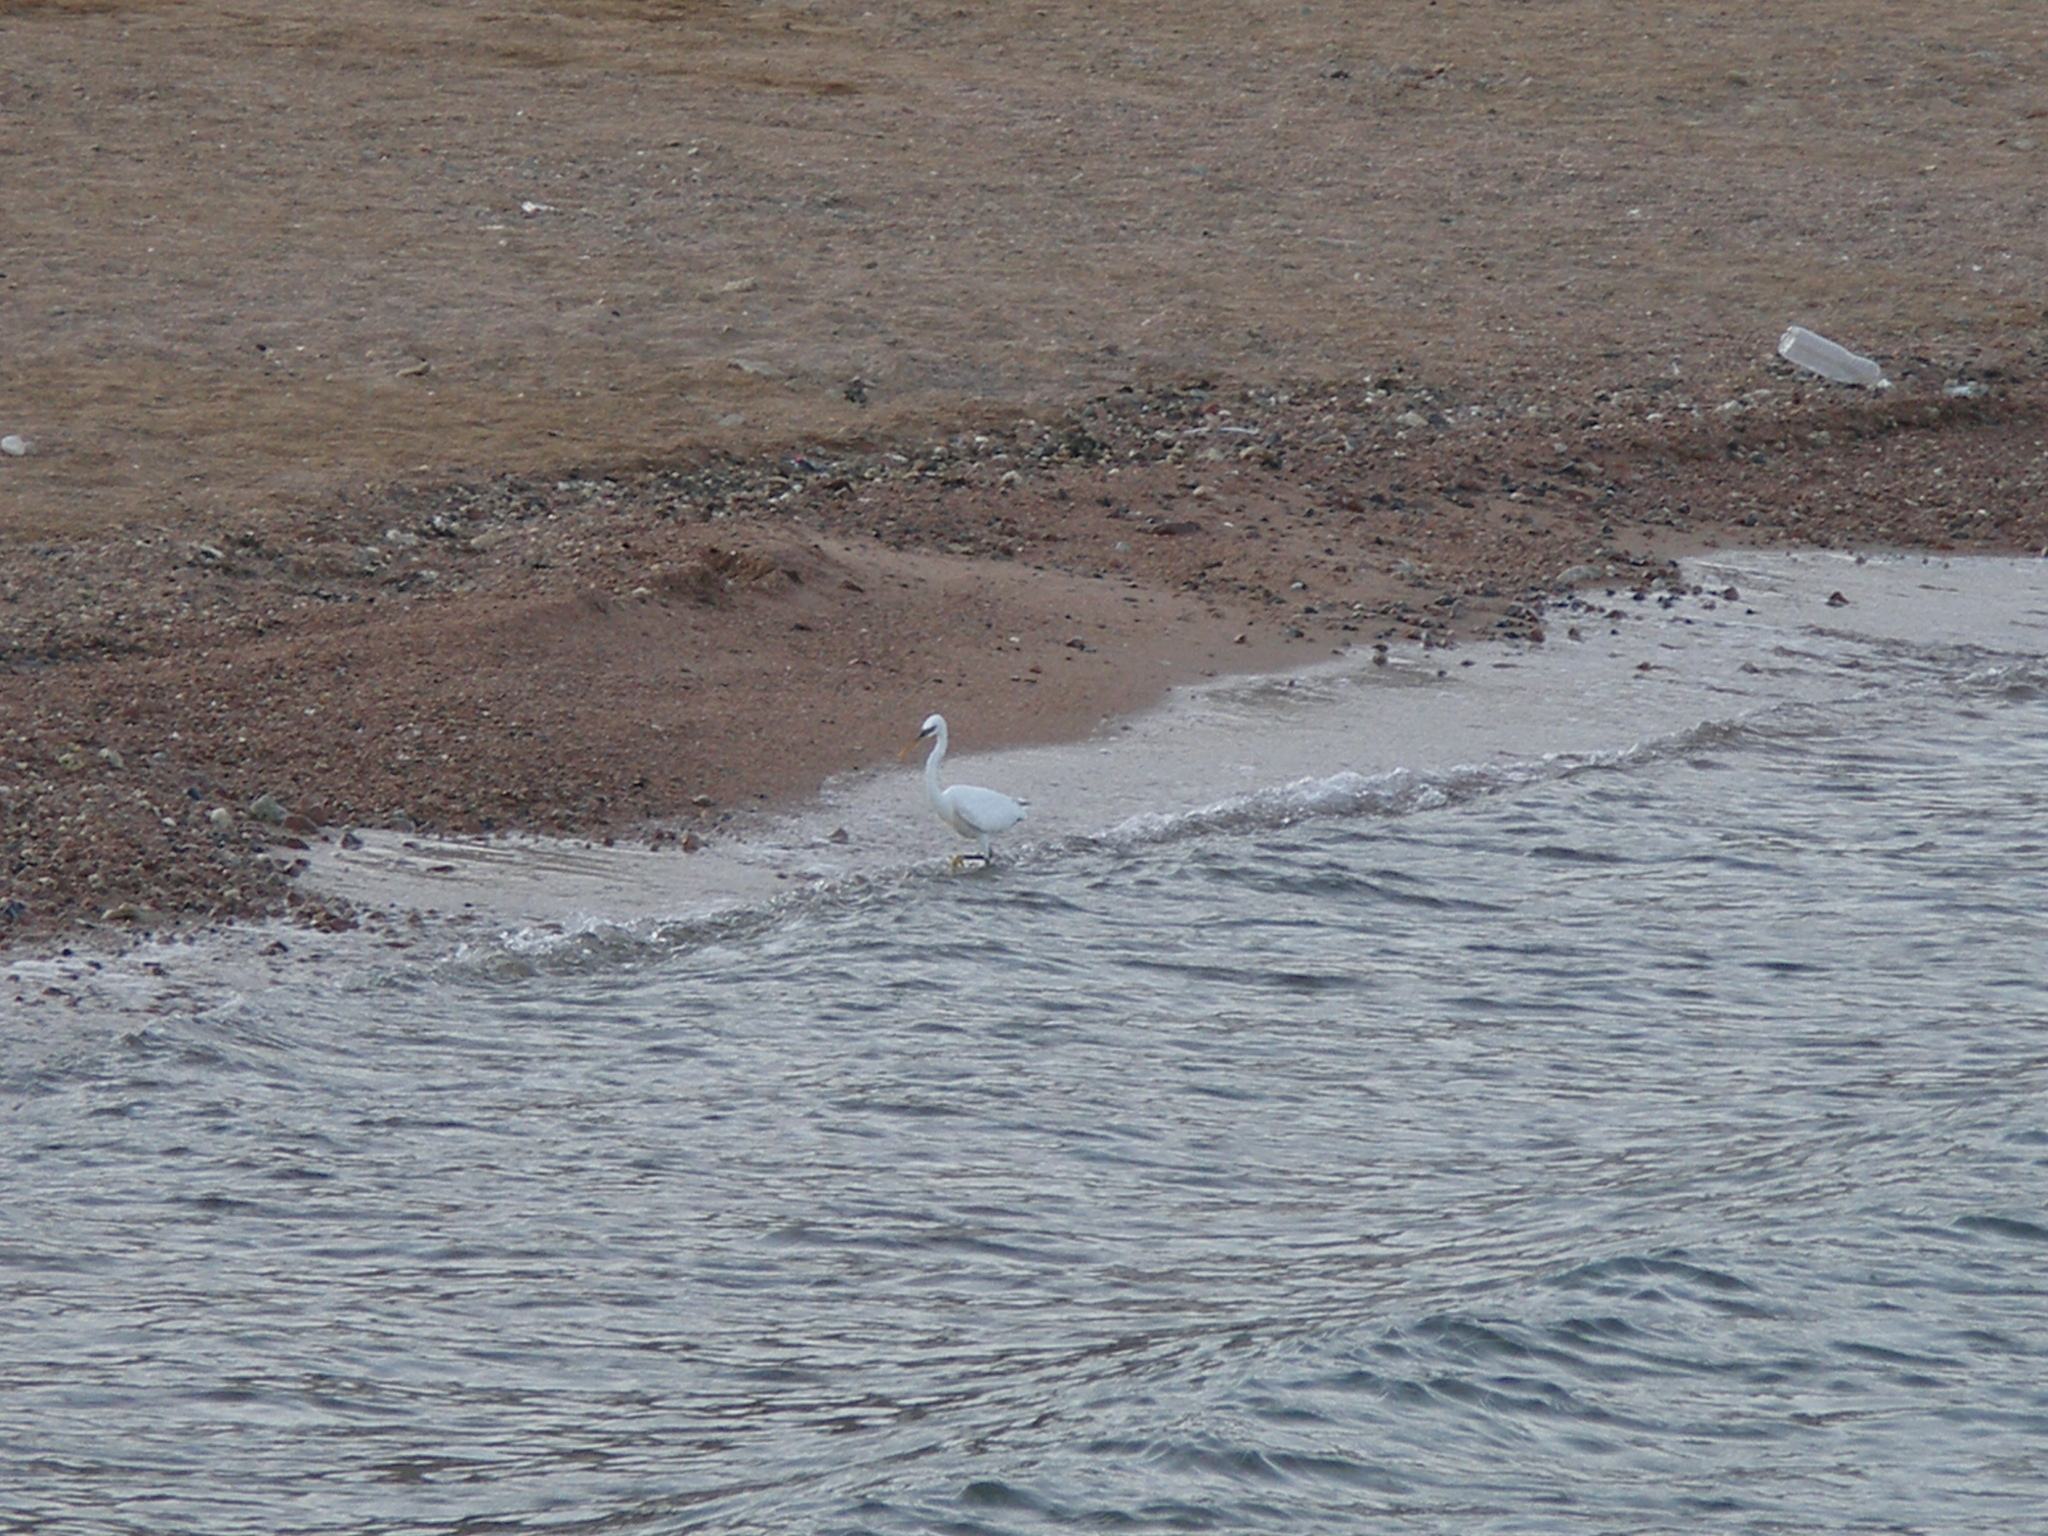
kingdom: Animalia
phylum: Chordata
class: Aves
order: Pelecaniformes
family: Ardeidae
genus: Egretta
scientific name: Egretta gularis
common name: Western reef-heron
